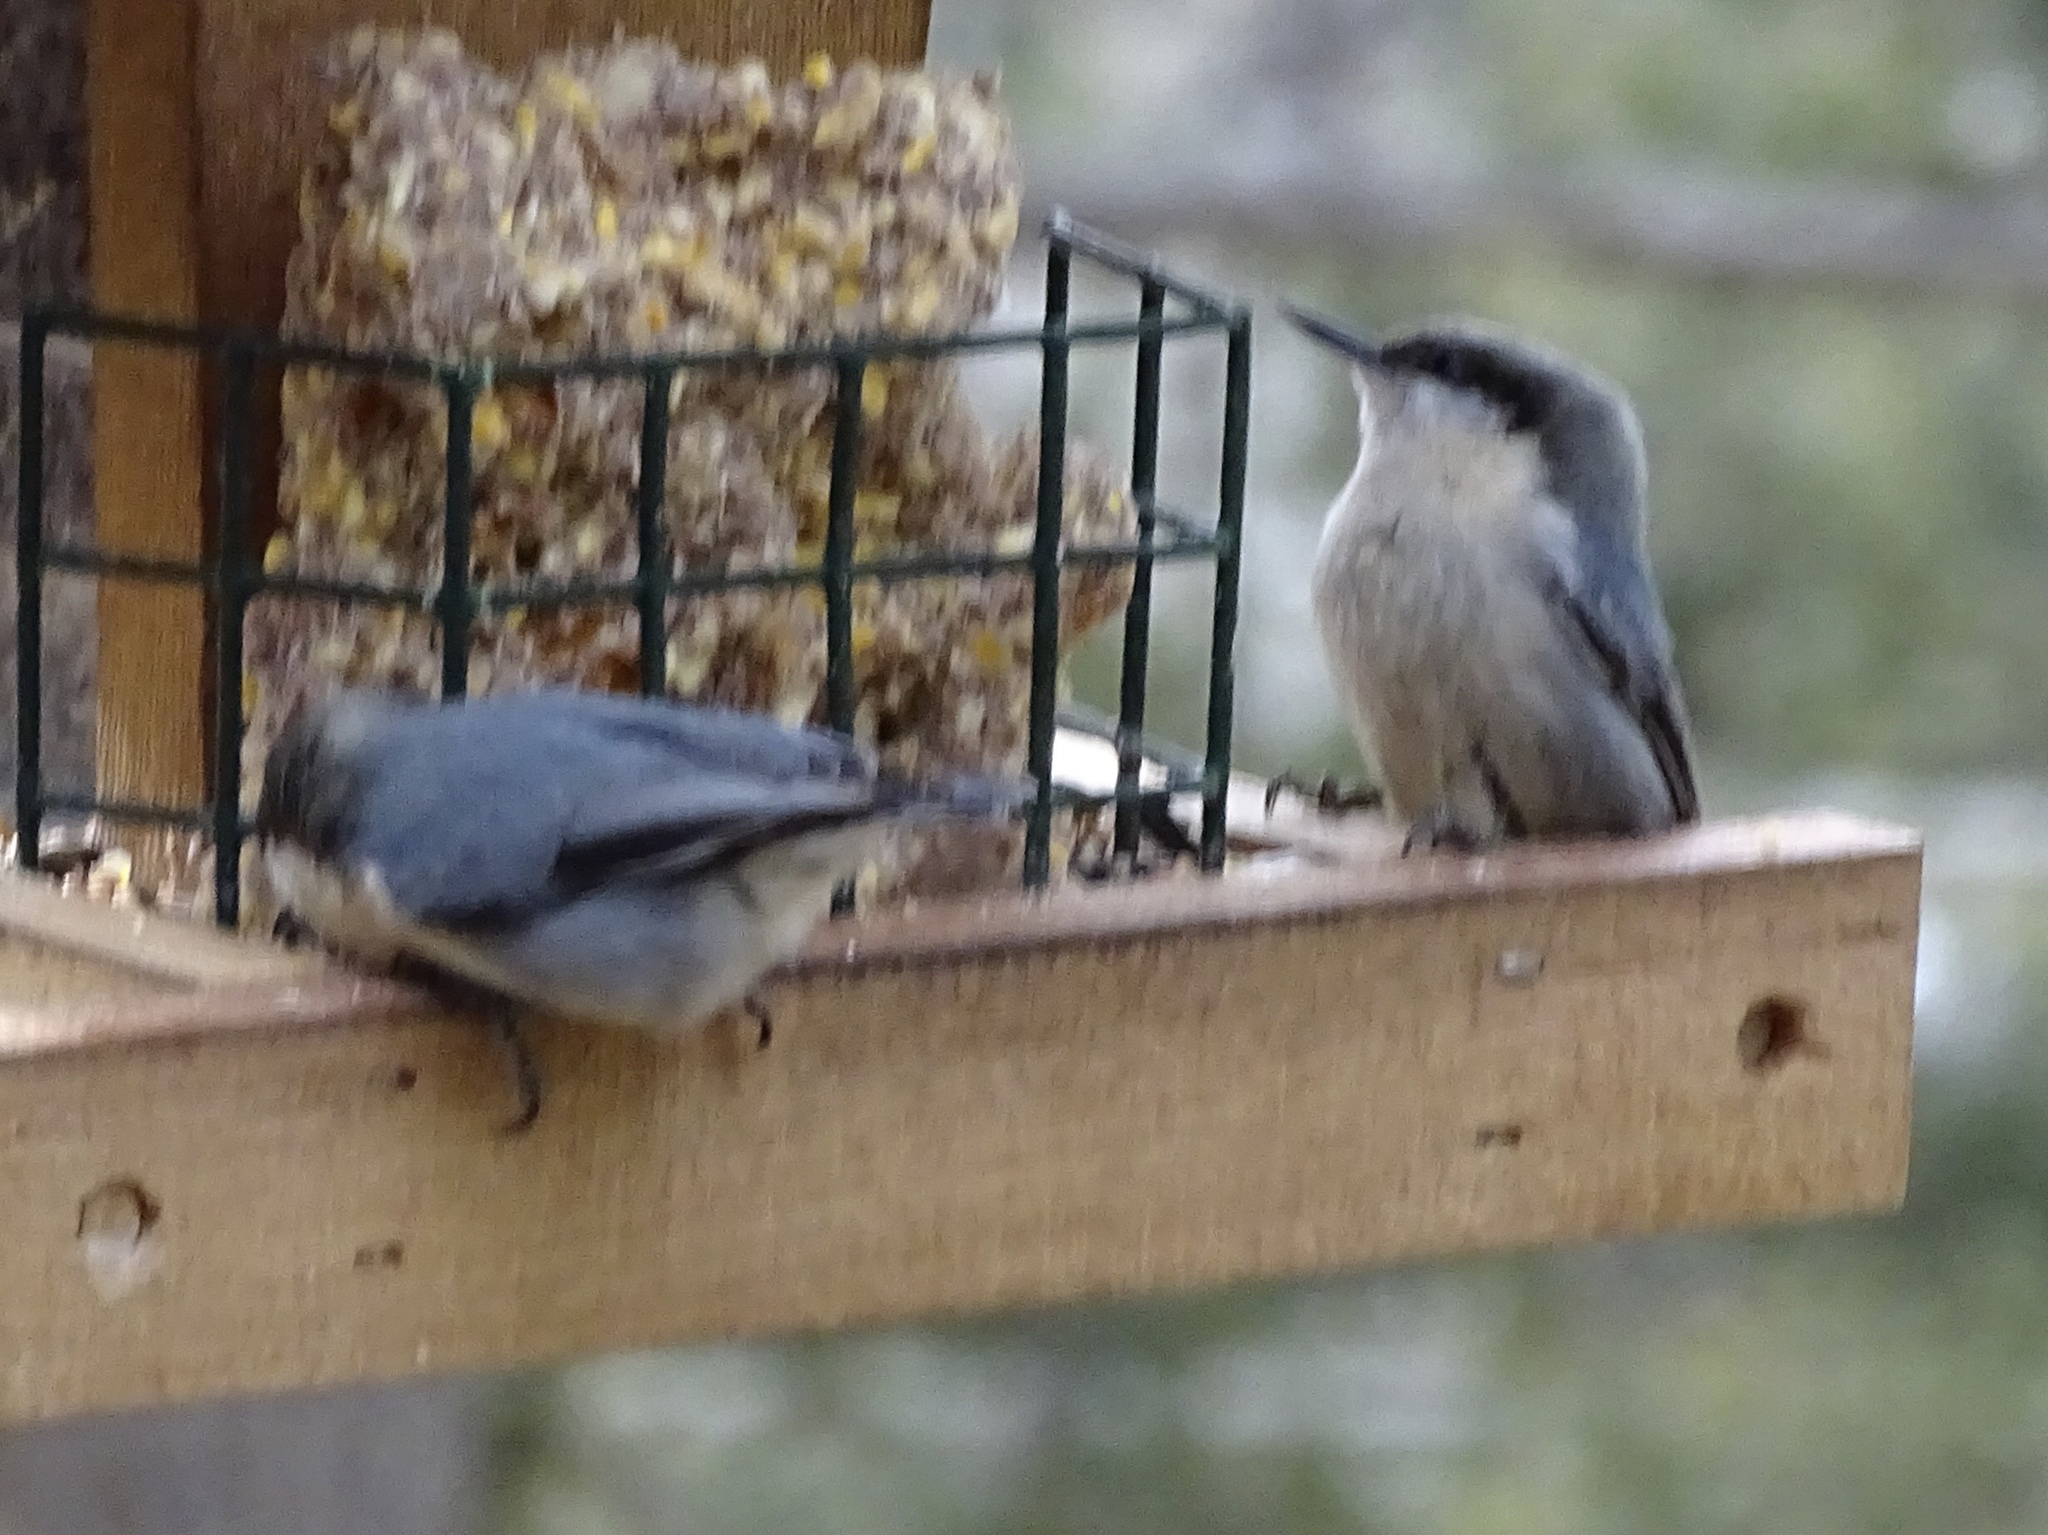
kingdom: Animalia
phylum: Chordata
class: Aves
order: Passeriformes
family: Sittidae
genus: Sitta
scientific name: Sitta pygmaea
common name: Pygmy nuthatch
